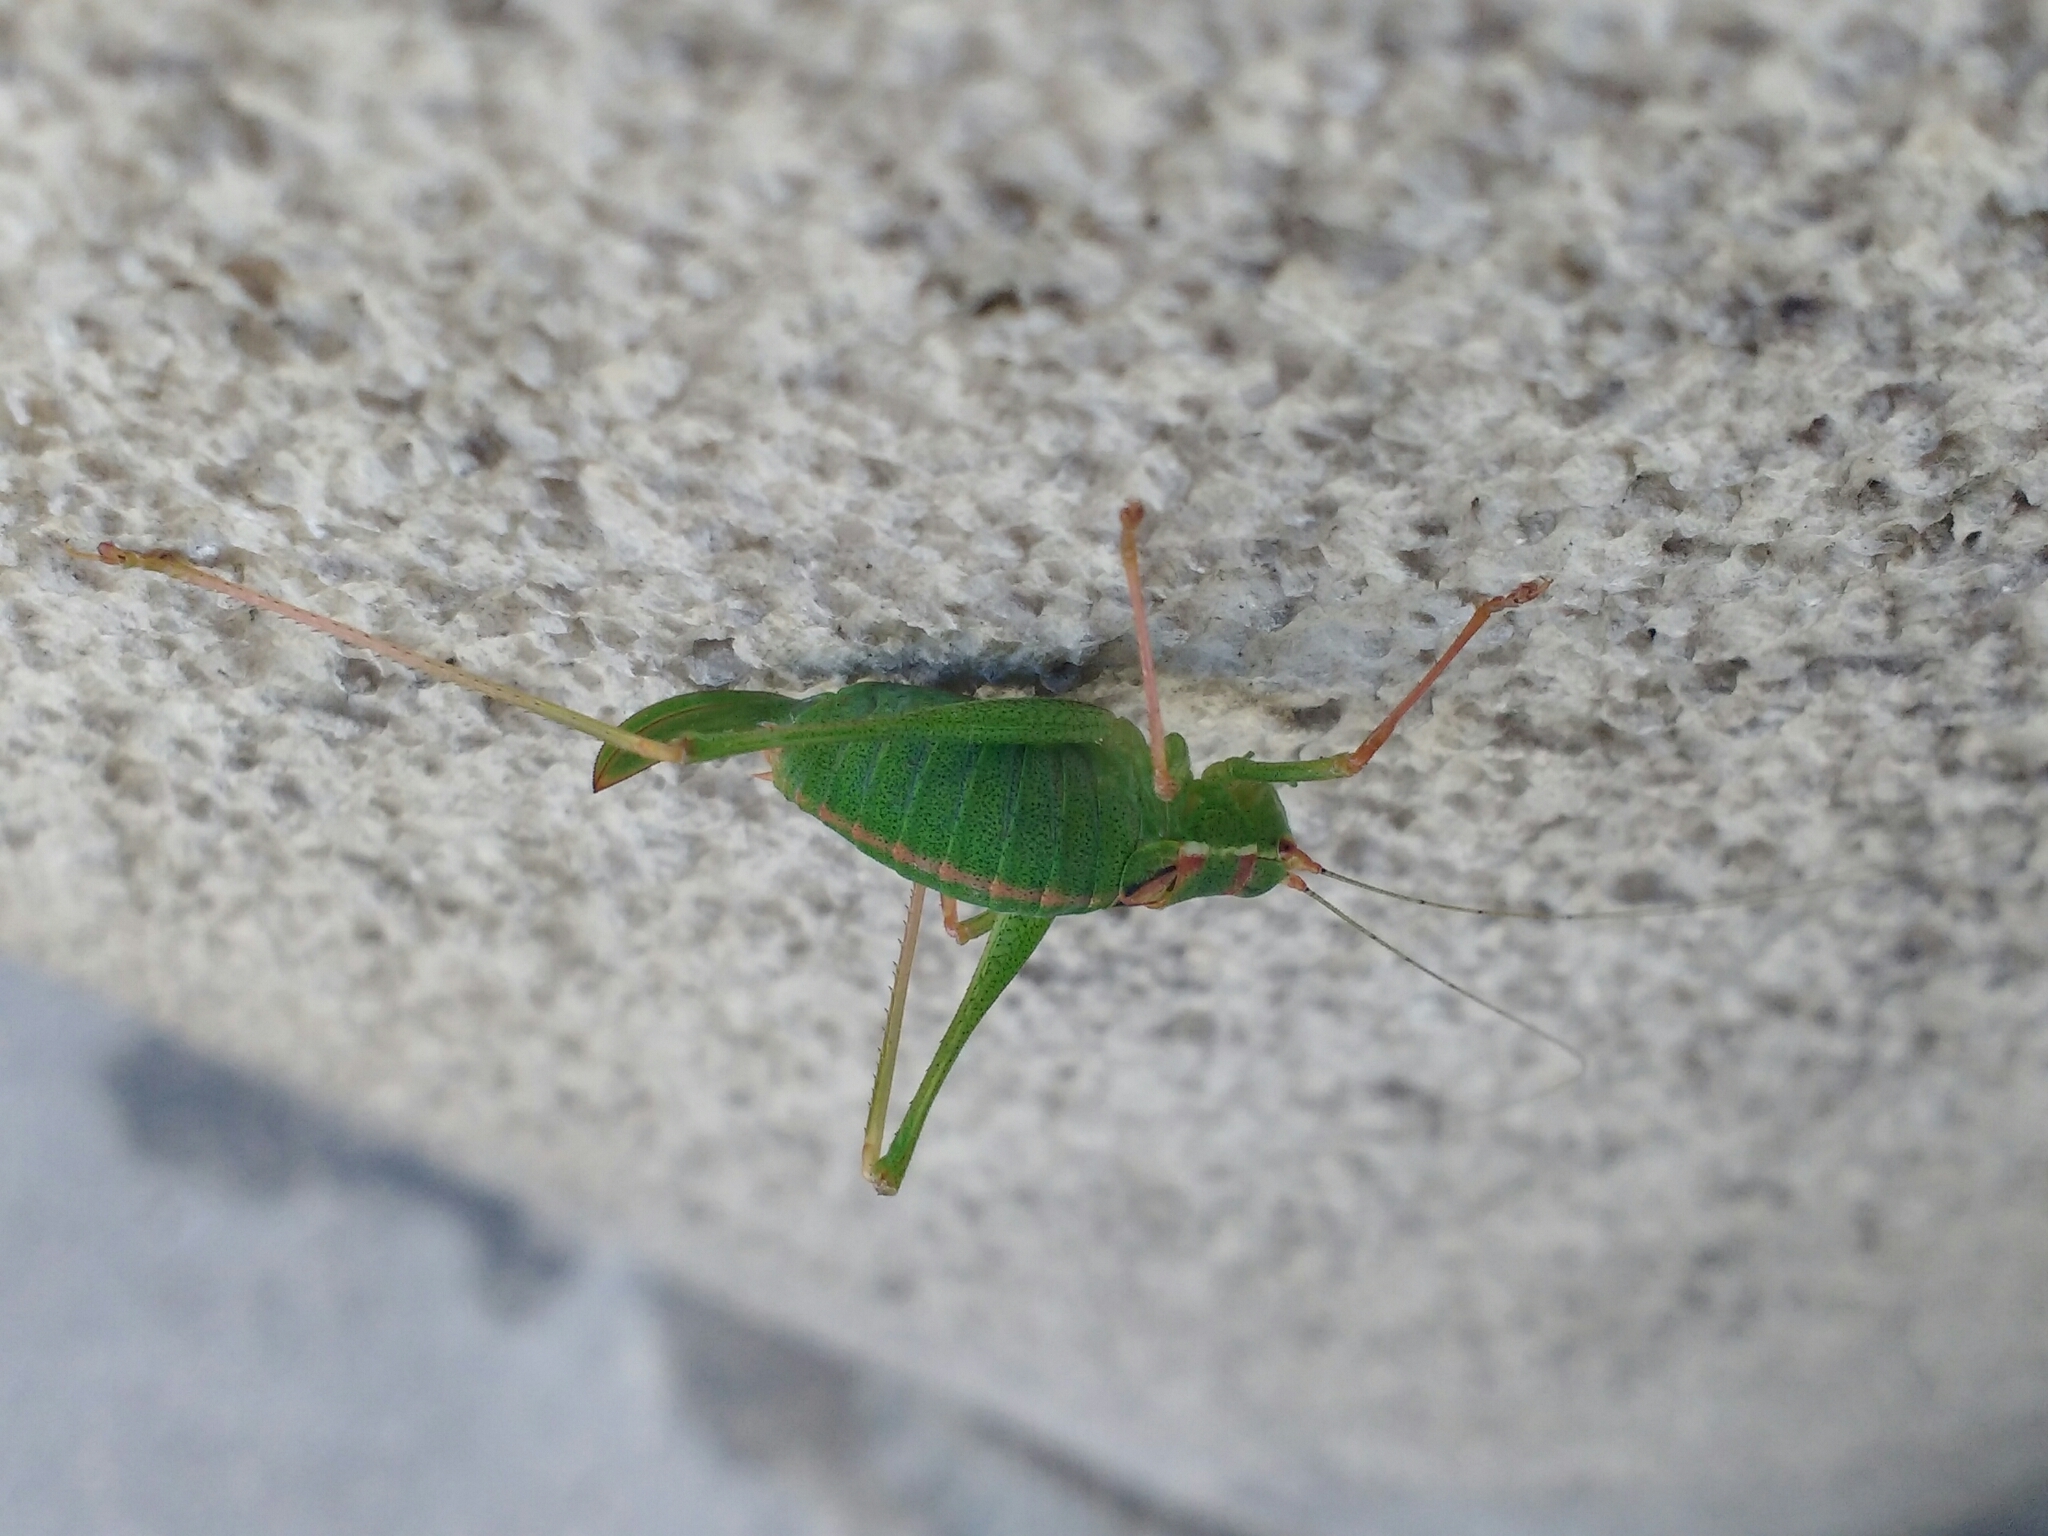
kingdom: Animalia
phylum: Arthropoda
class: Insecta
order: Orthoptera
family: Tettigoniidae
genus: Leptophyes
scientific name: Leptophyes punctatissima
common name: Speckled bush-cricket
